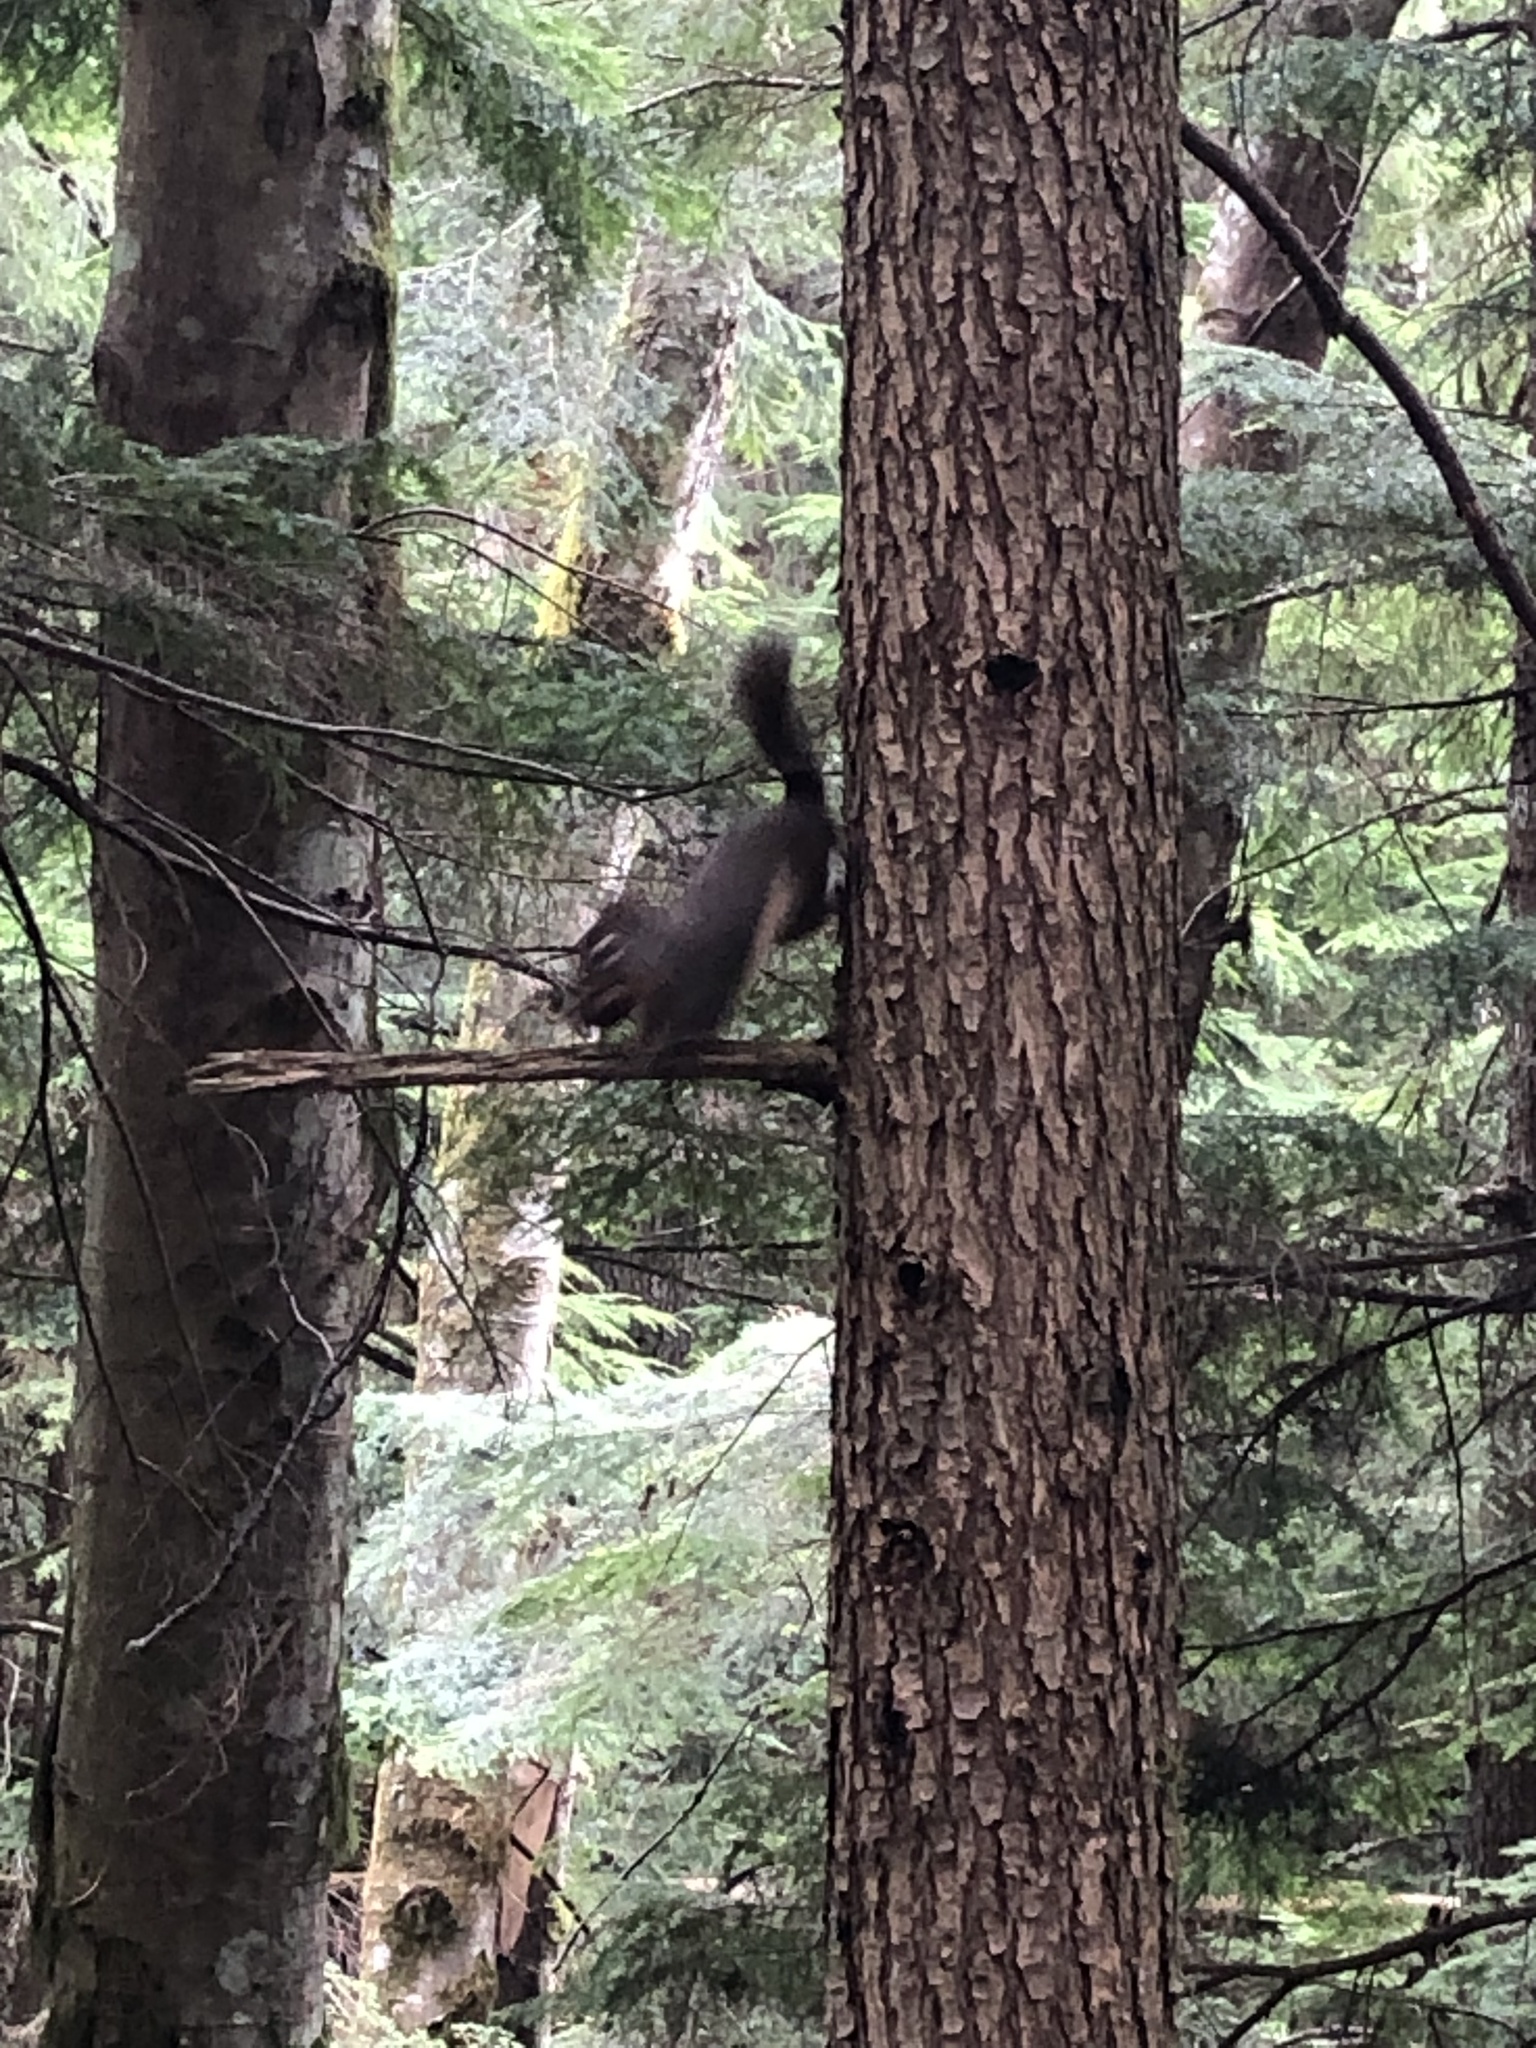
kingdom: Animalia
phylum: Chordata
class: Mammalia
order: Rodentia
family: Sciuridae
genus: Tamiasciurus
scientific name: Tamiasciurus douglasii
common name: Douglas's squirrel
